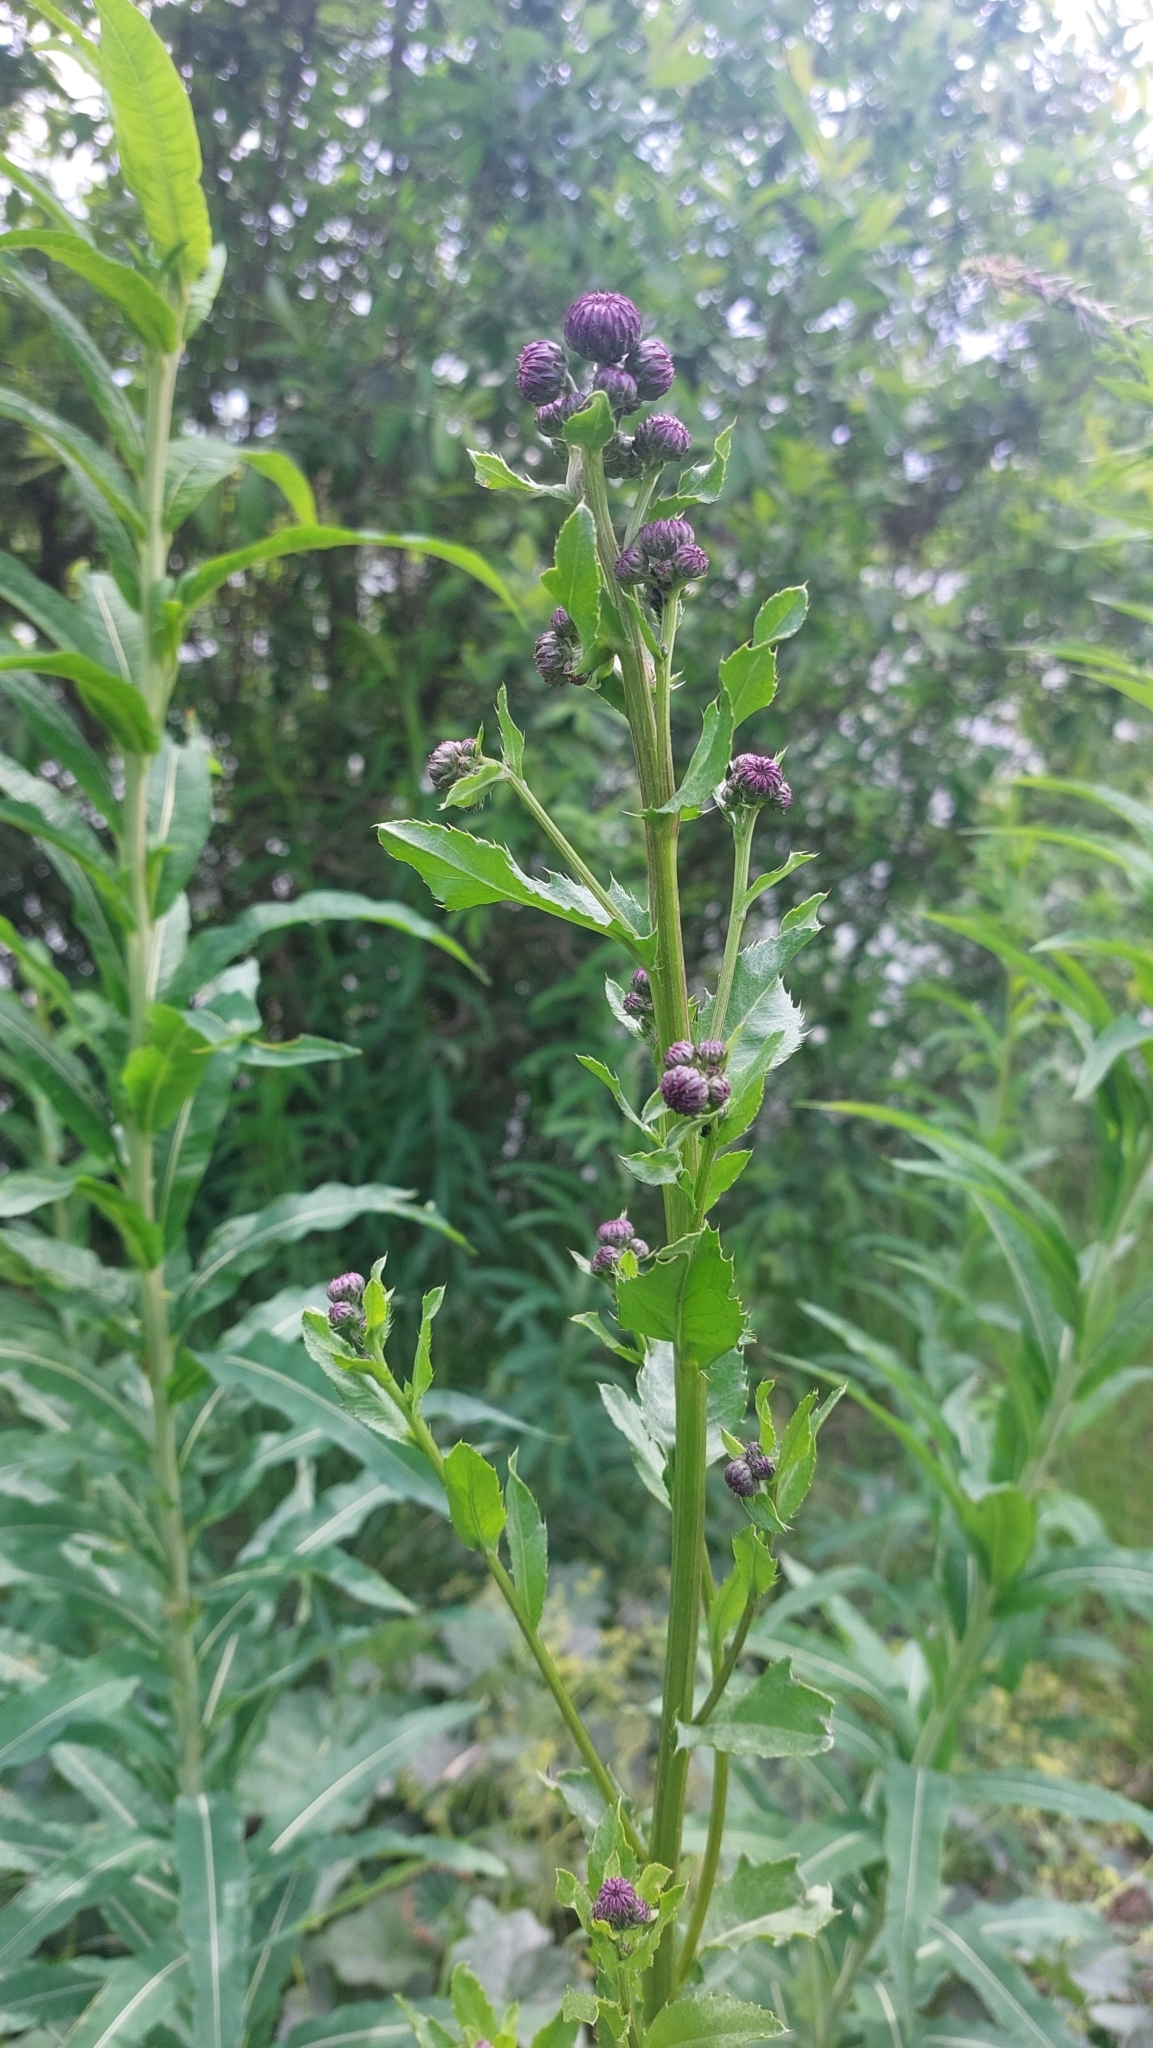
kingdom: Plantae
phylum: Tracheophyta
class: Magnoliopsida
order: Asterales
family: Asteraceae
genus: Cirsium
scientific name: Cirsium arvense
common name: Creeping thistle
